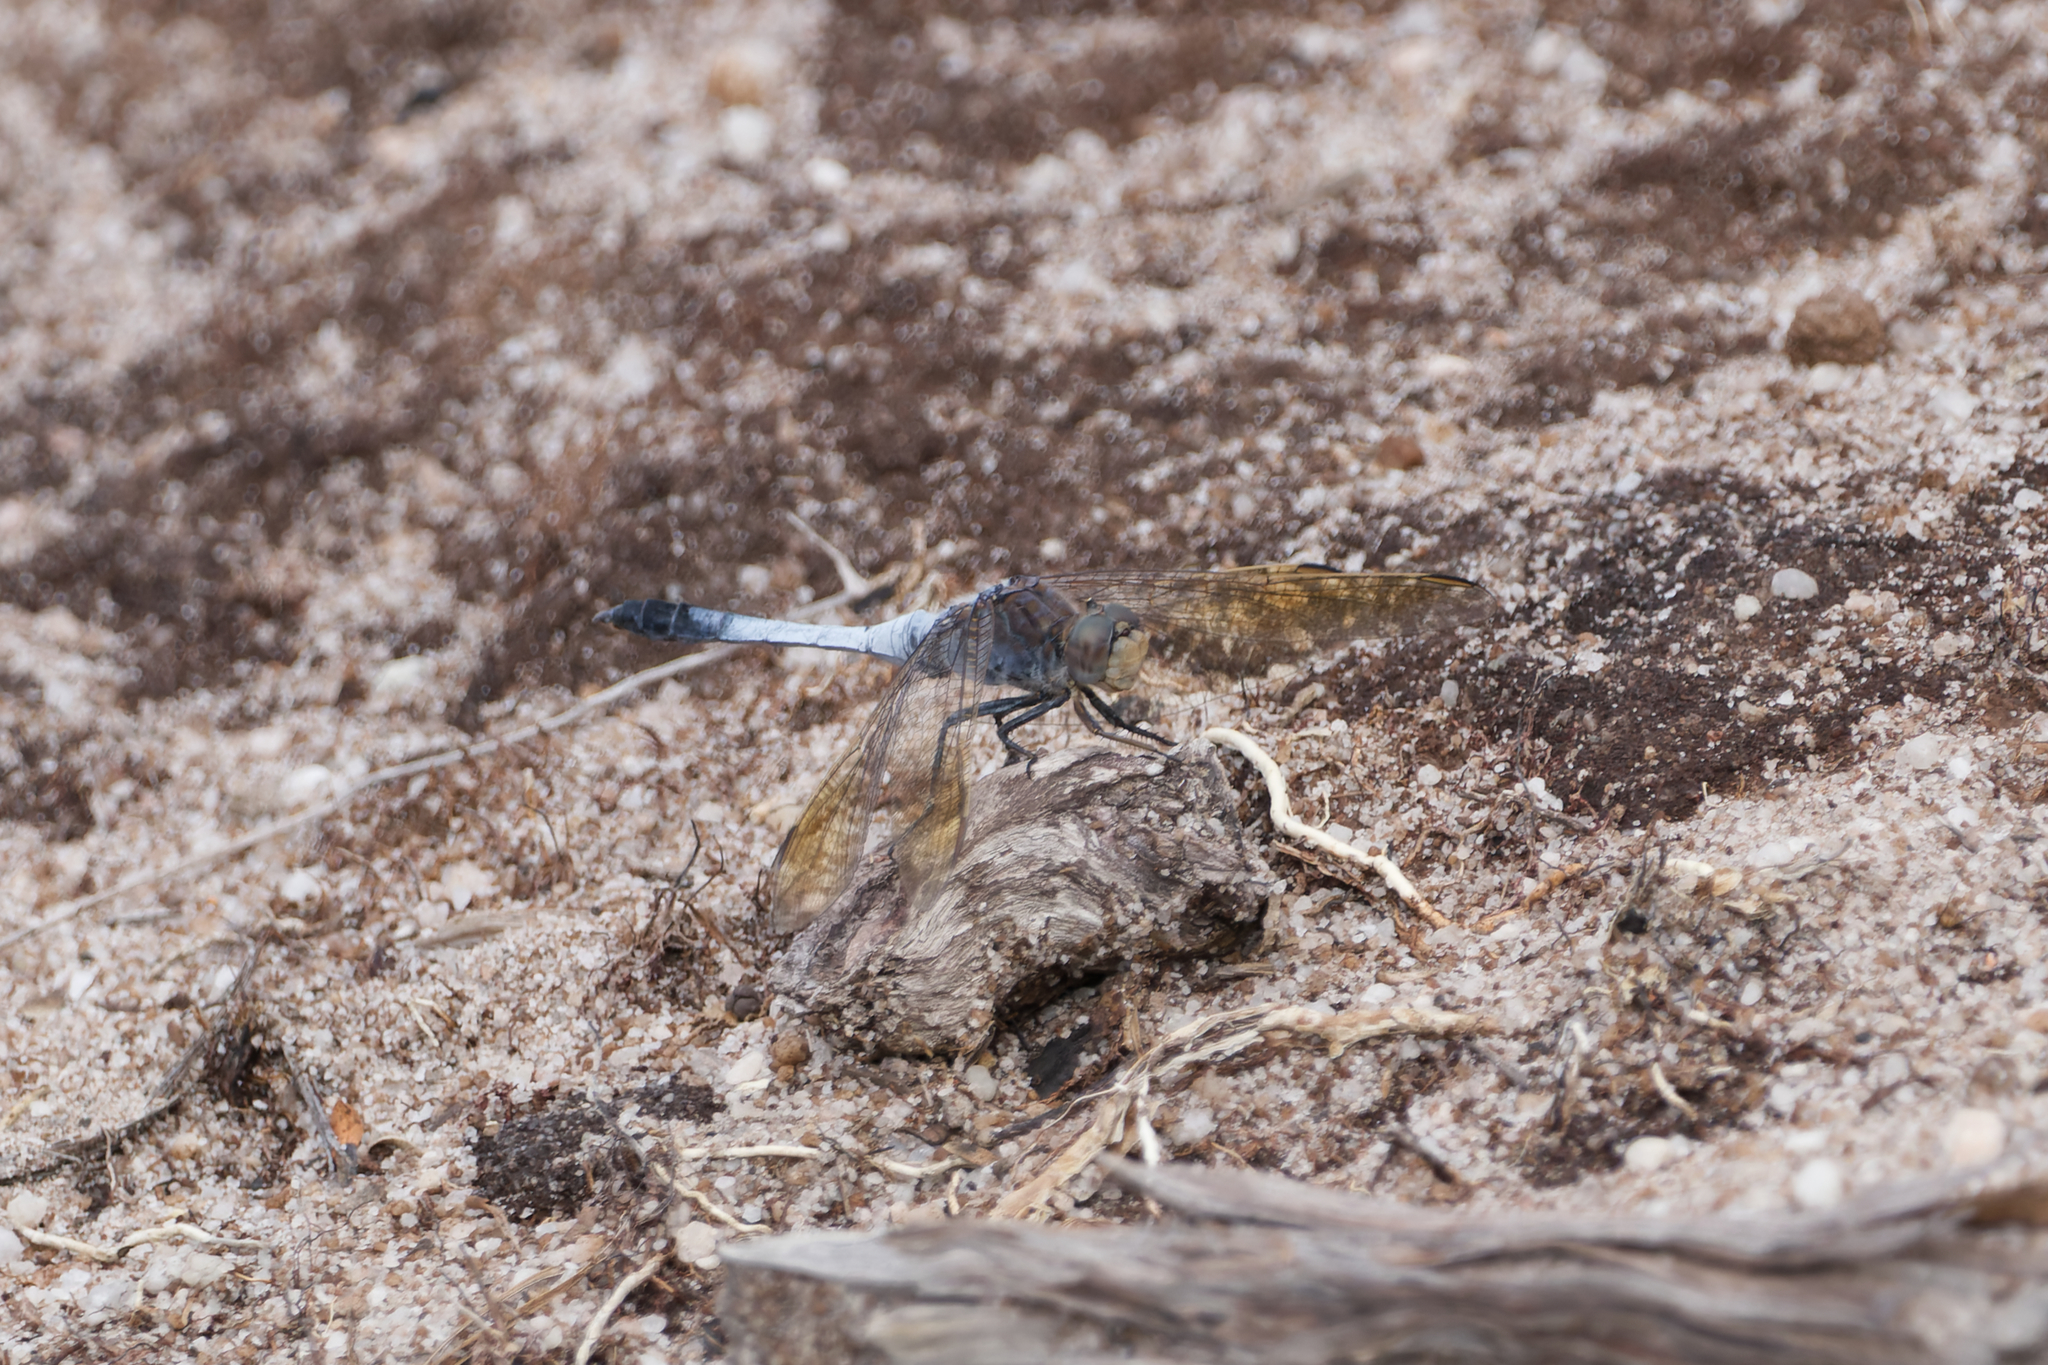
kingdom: Animalia
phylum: Arthropoda
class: Insecta
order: Odonata
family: Libellulidae
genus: Orthetrum
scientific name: Orthetrum caledonicum
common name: Blue skimmer
